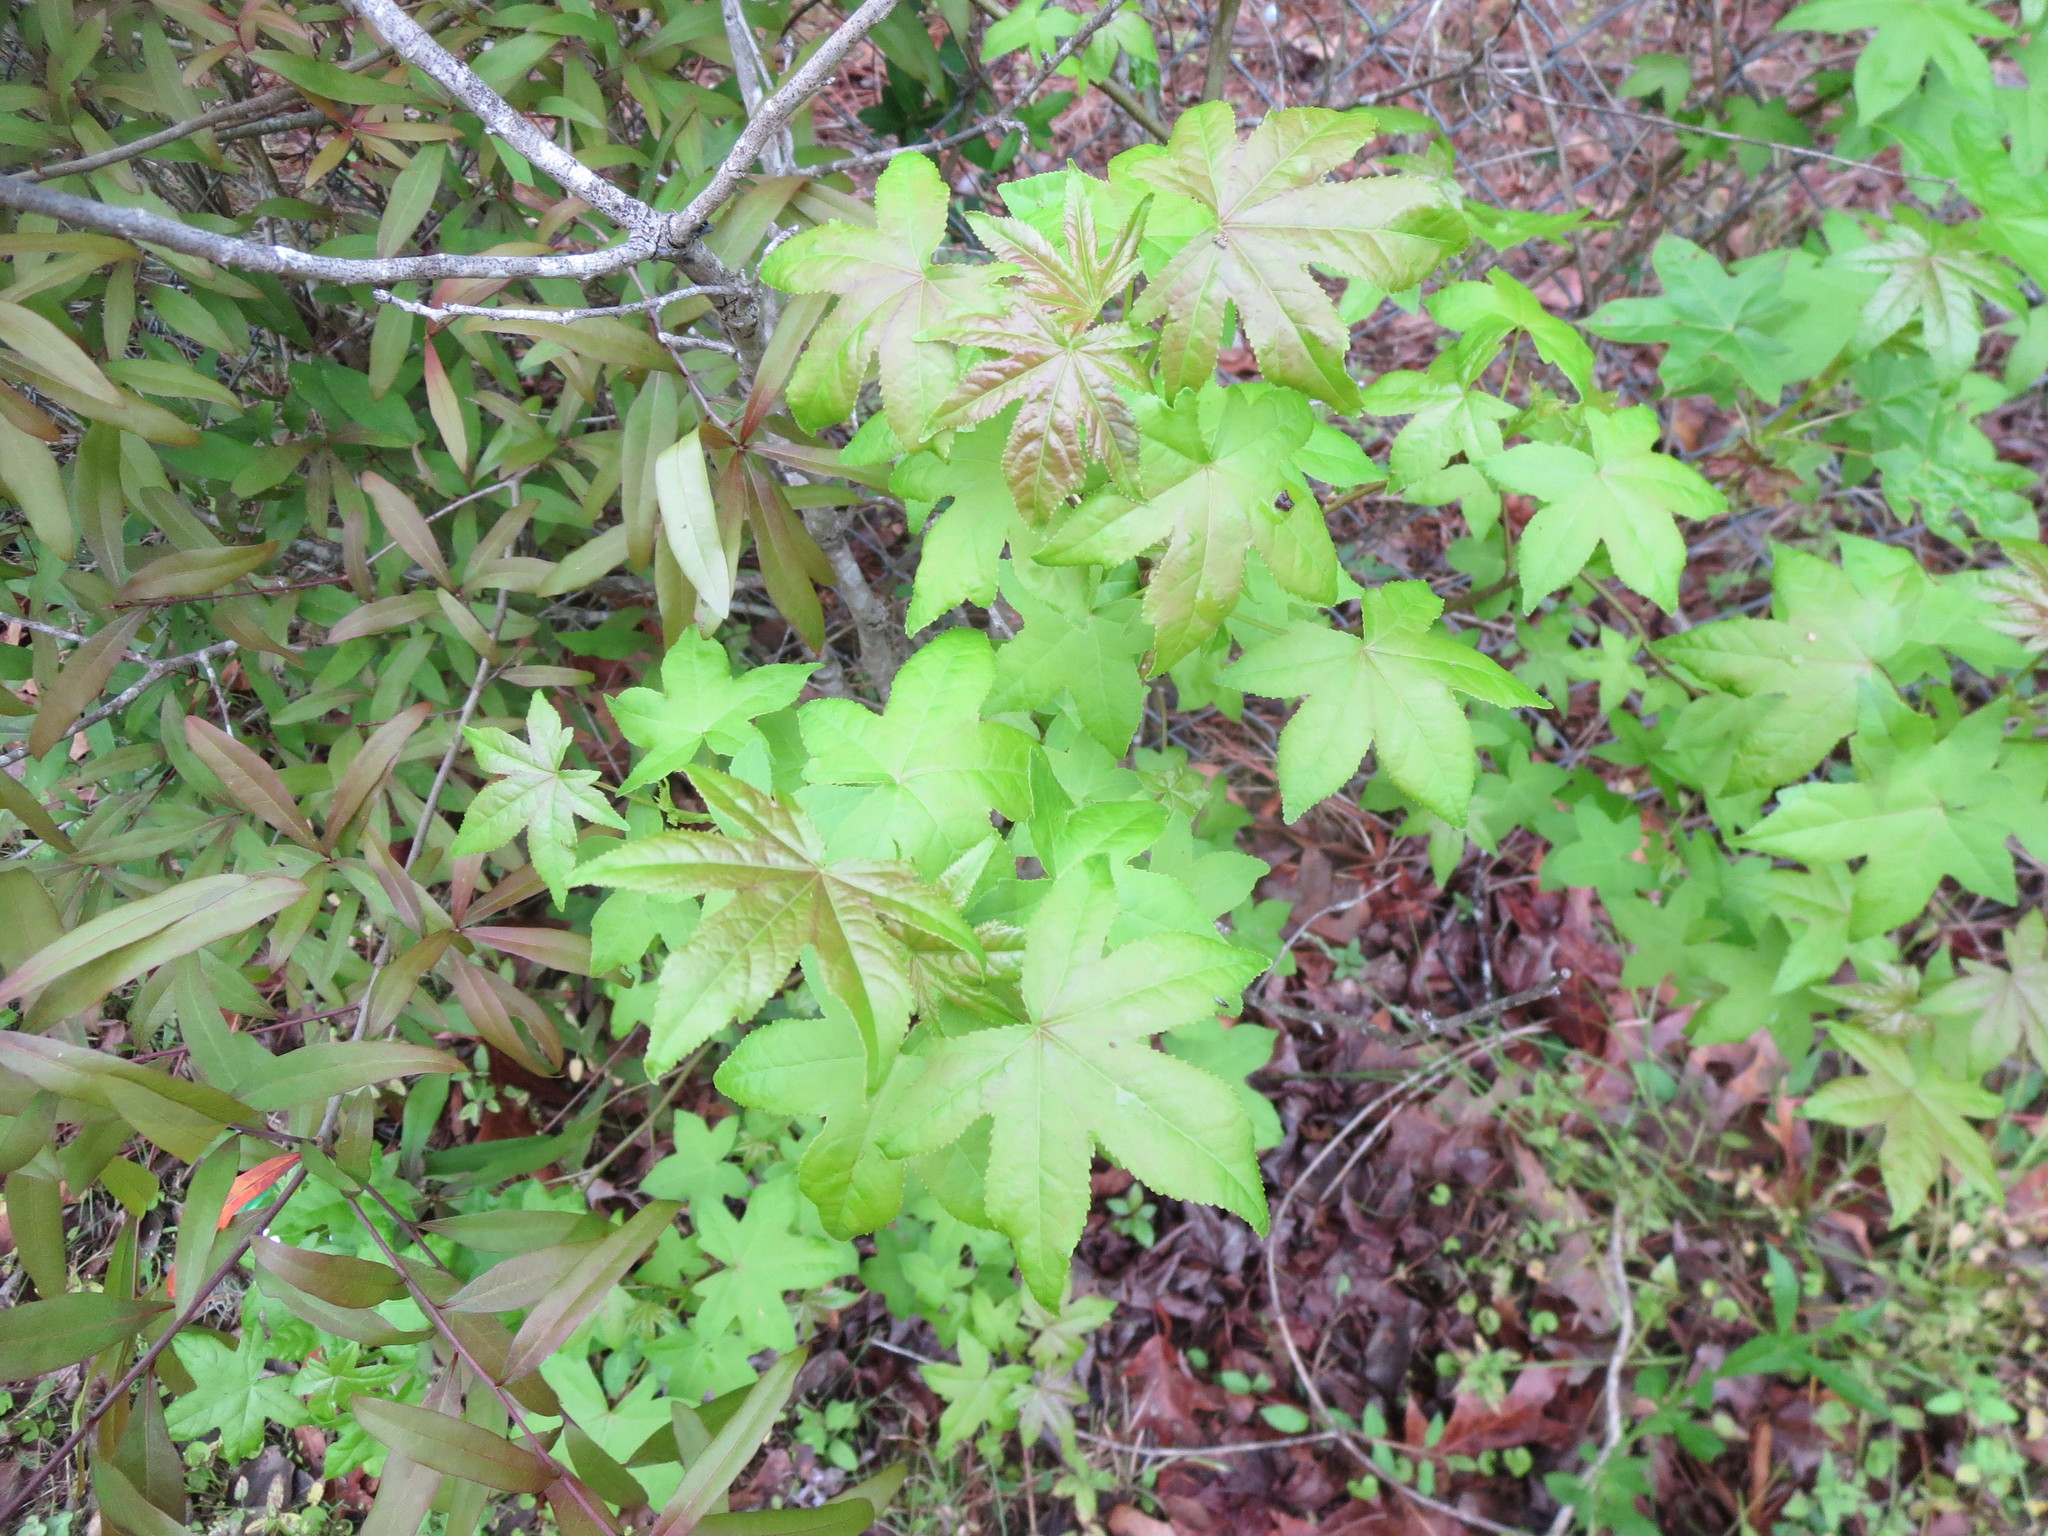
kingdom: Plantae
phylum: Tracheophyta
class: Magnoliopsida
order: Saxifragales
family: Altingiaceae
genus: Liquidambar
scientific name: Liquidambar styraciflua
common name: Sweet gum
